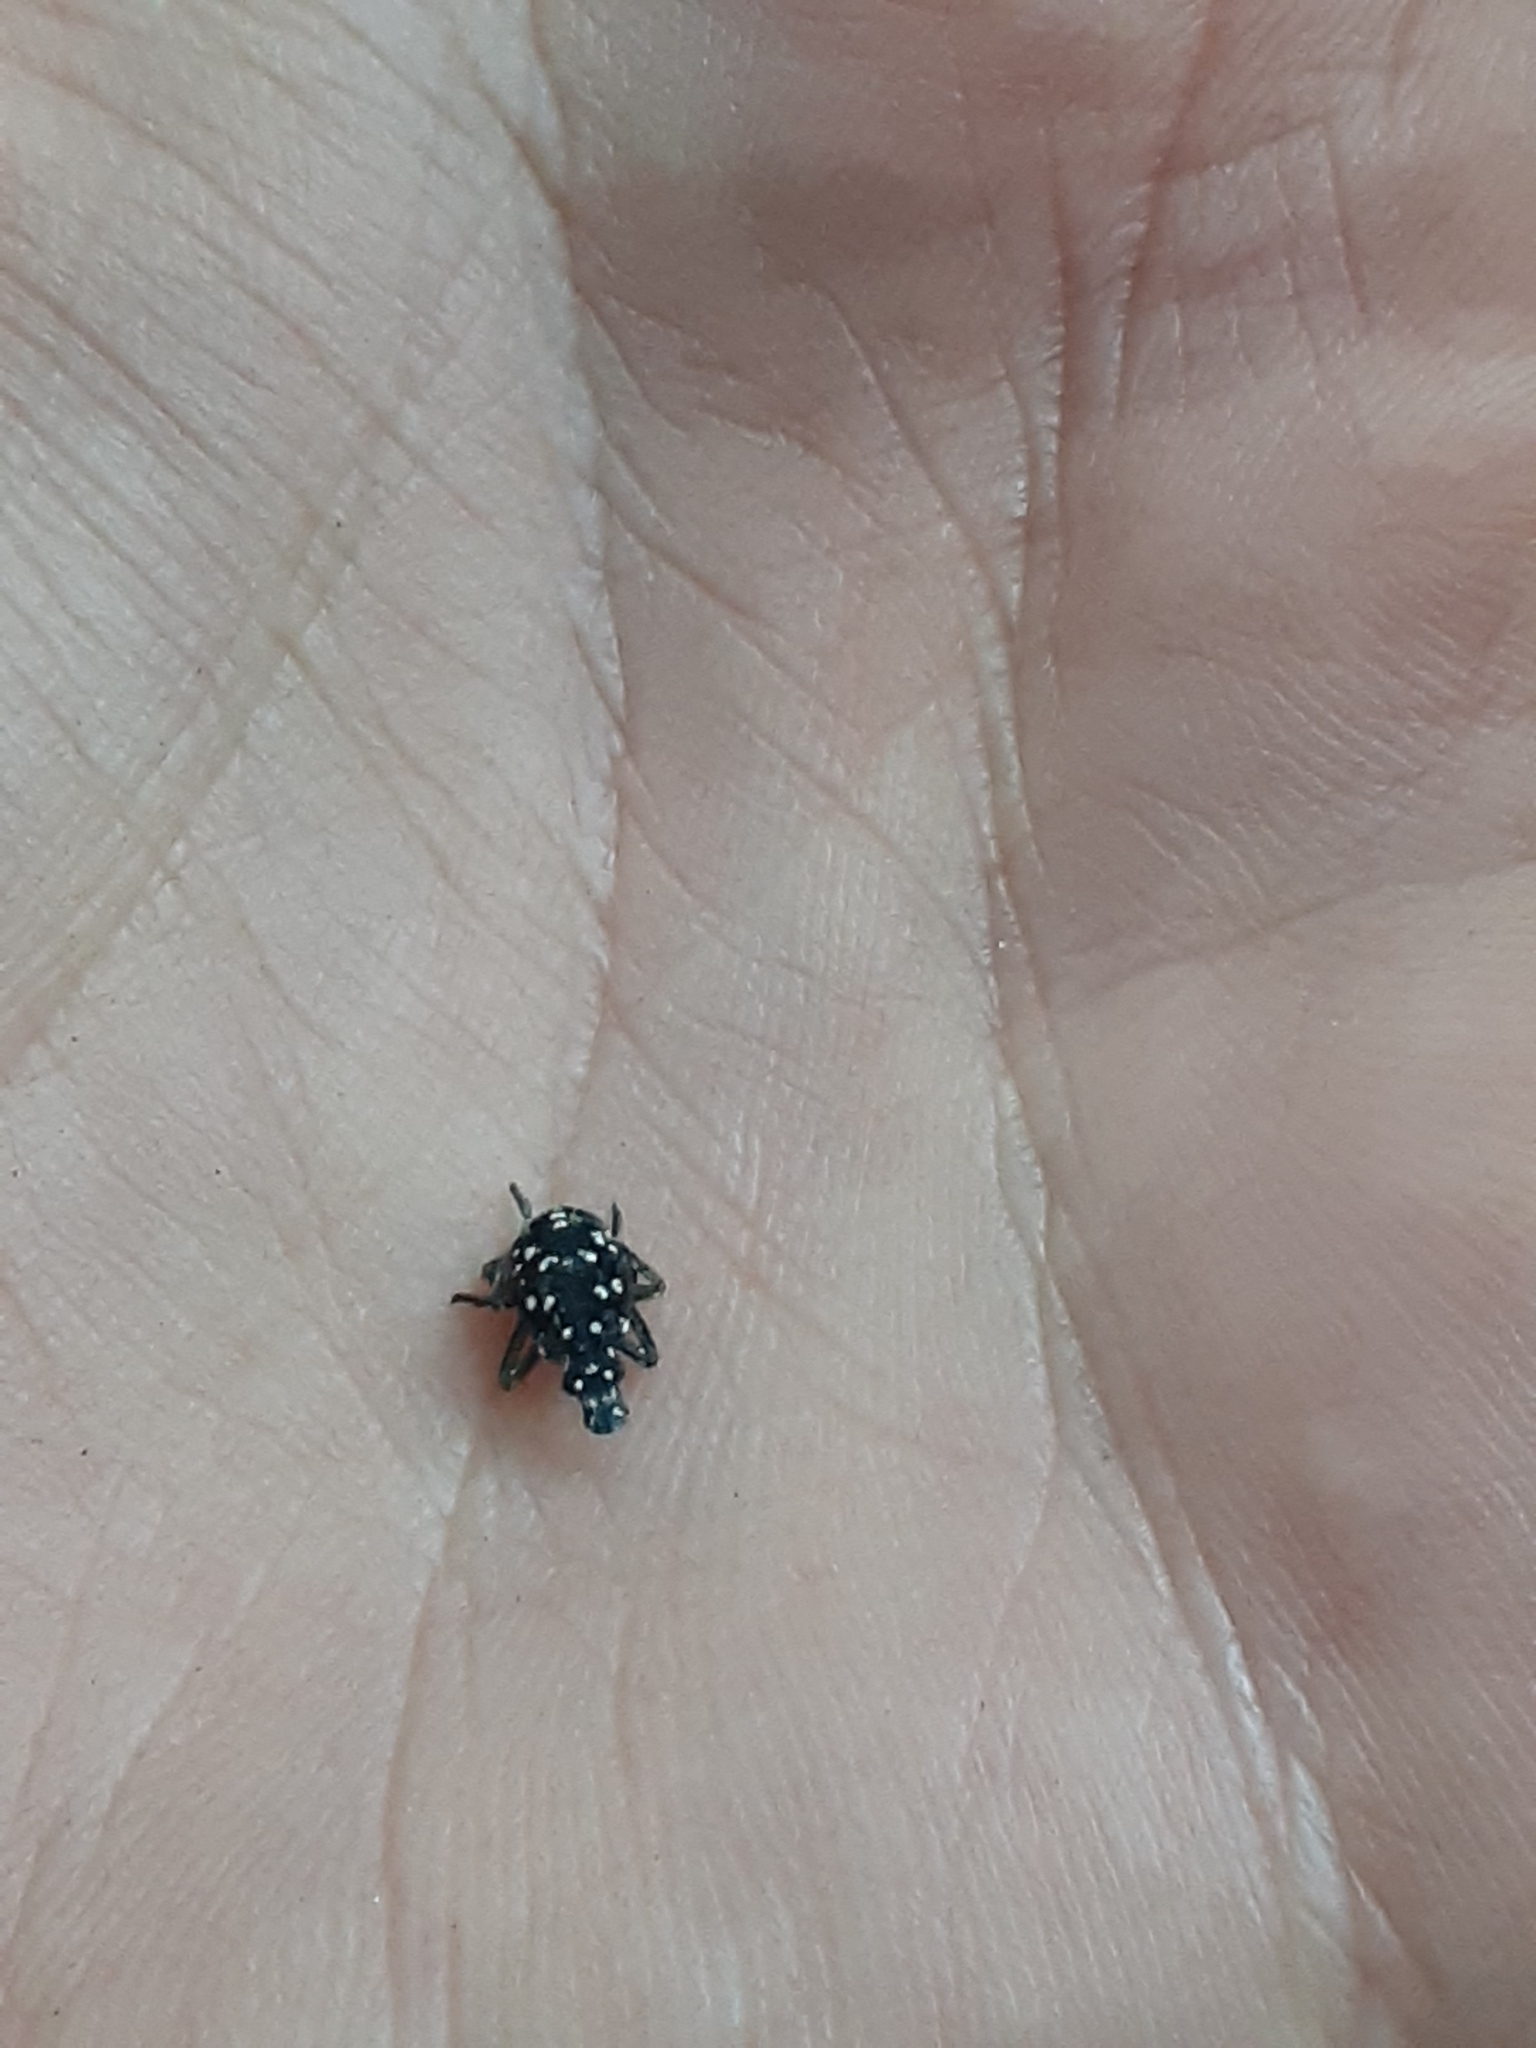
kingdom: Animalia
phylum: Arthropoda
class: Insecta
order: Hemiptera
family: Fulgoridae
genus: Lycorma
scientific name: Lycorma delicatula
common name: Spotted lanternfly
